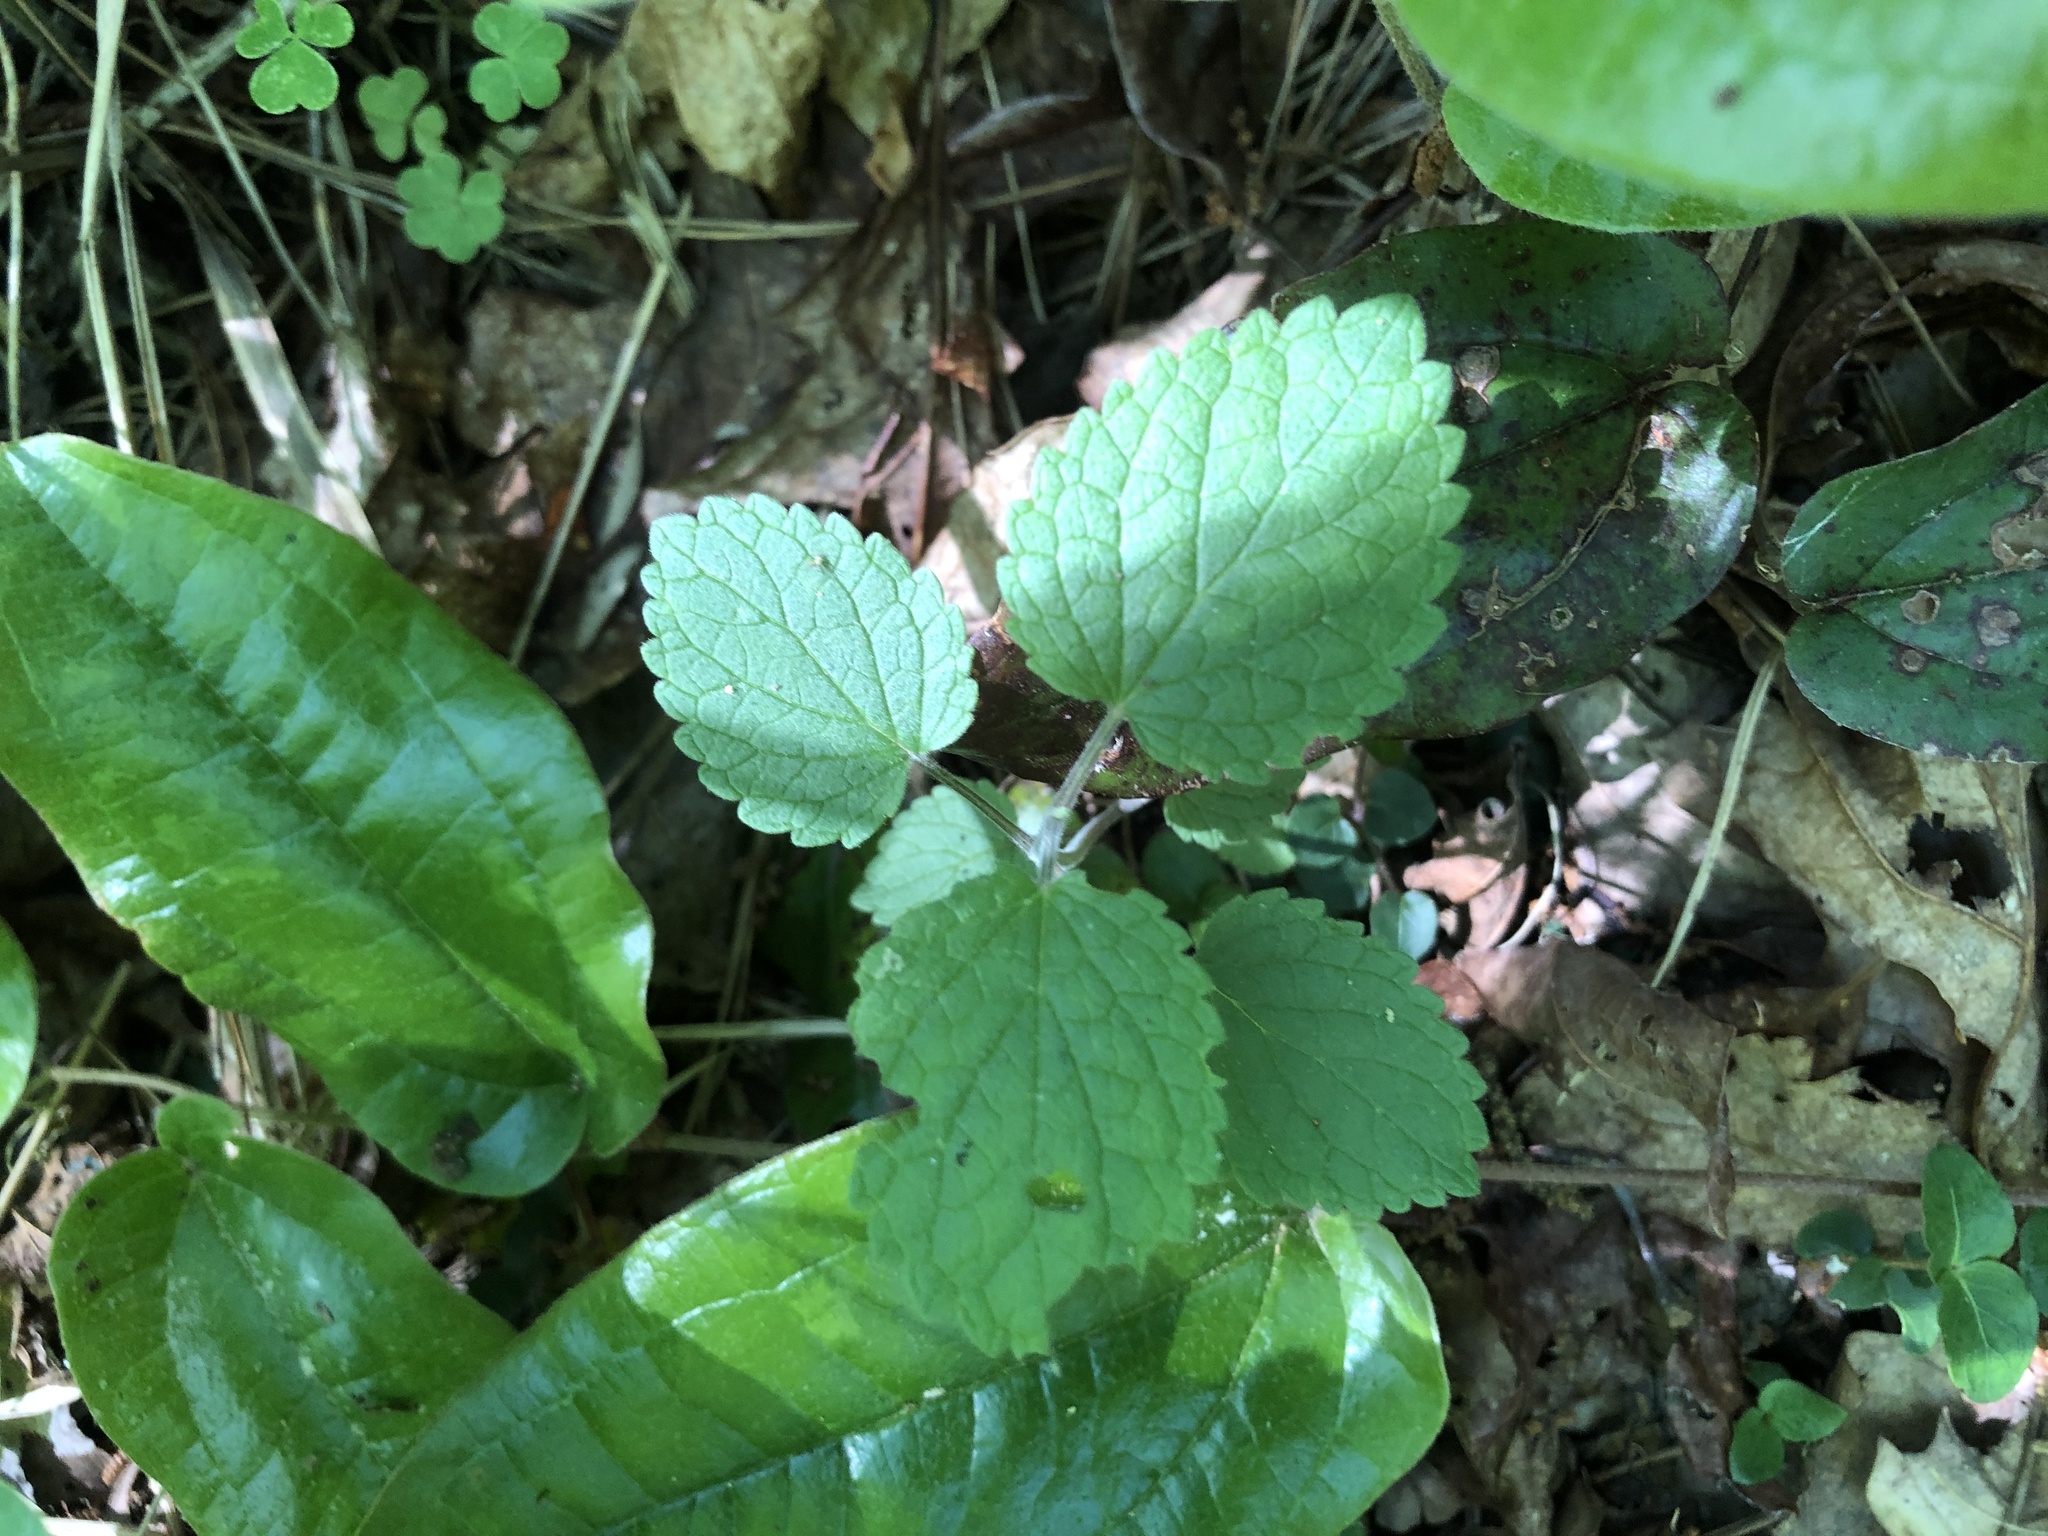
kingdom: Plantae
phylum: Tracheophyta
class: Magnoliopsida
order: Lamiales
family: Lamiaceae
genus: Scutellaria
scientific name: Scutellaria ovata
